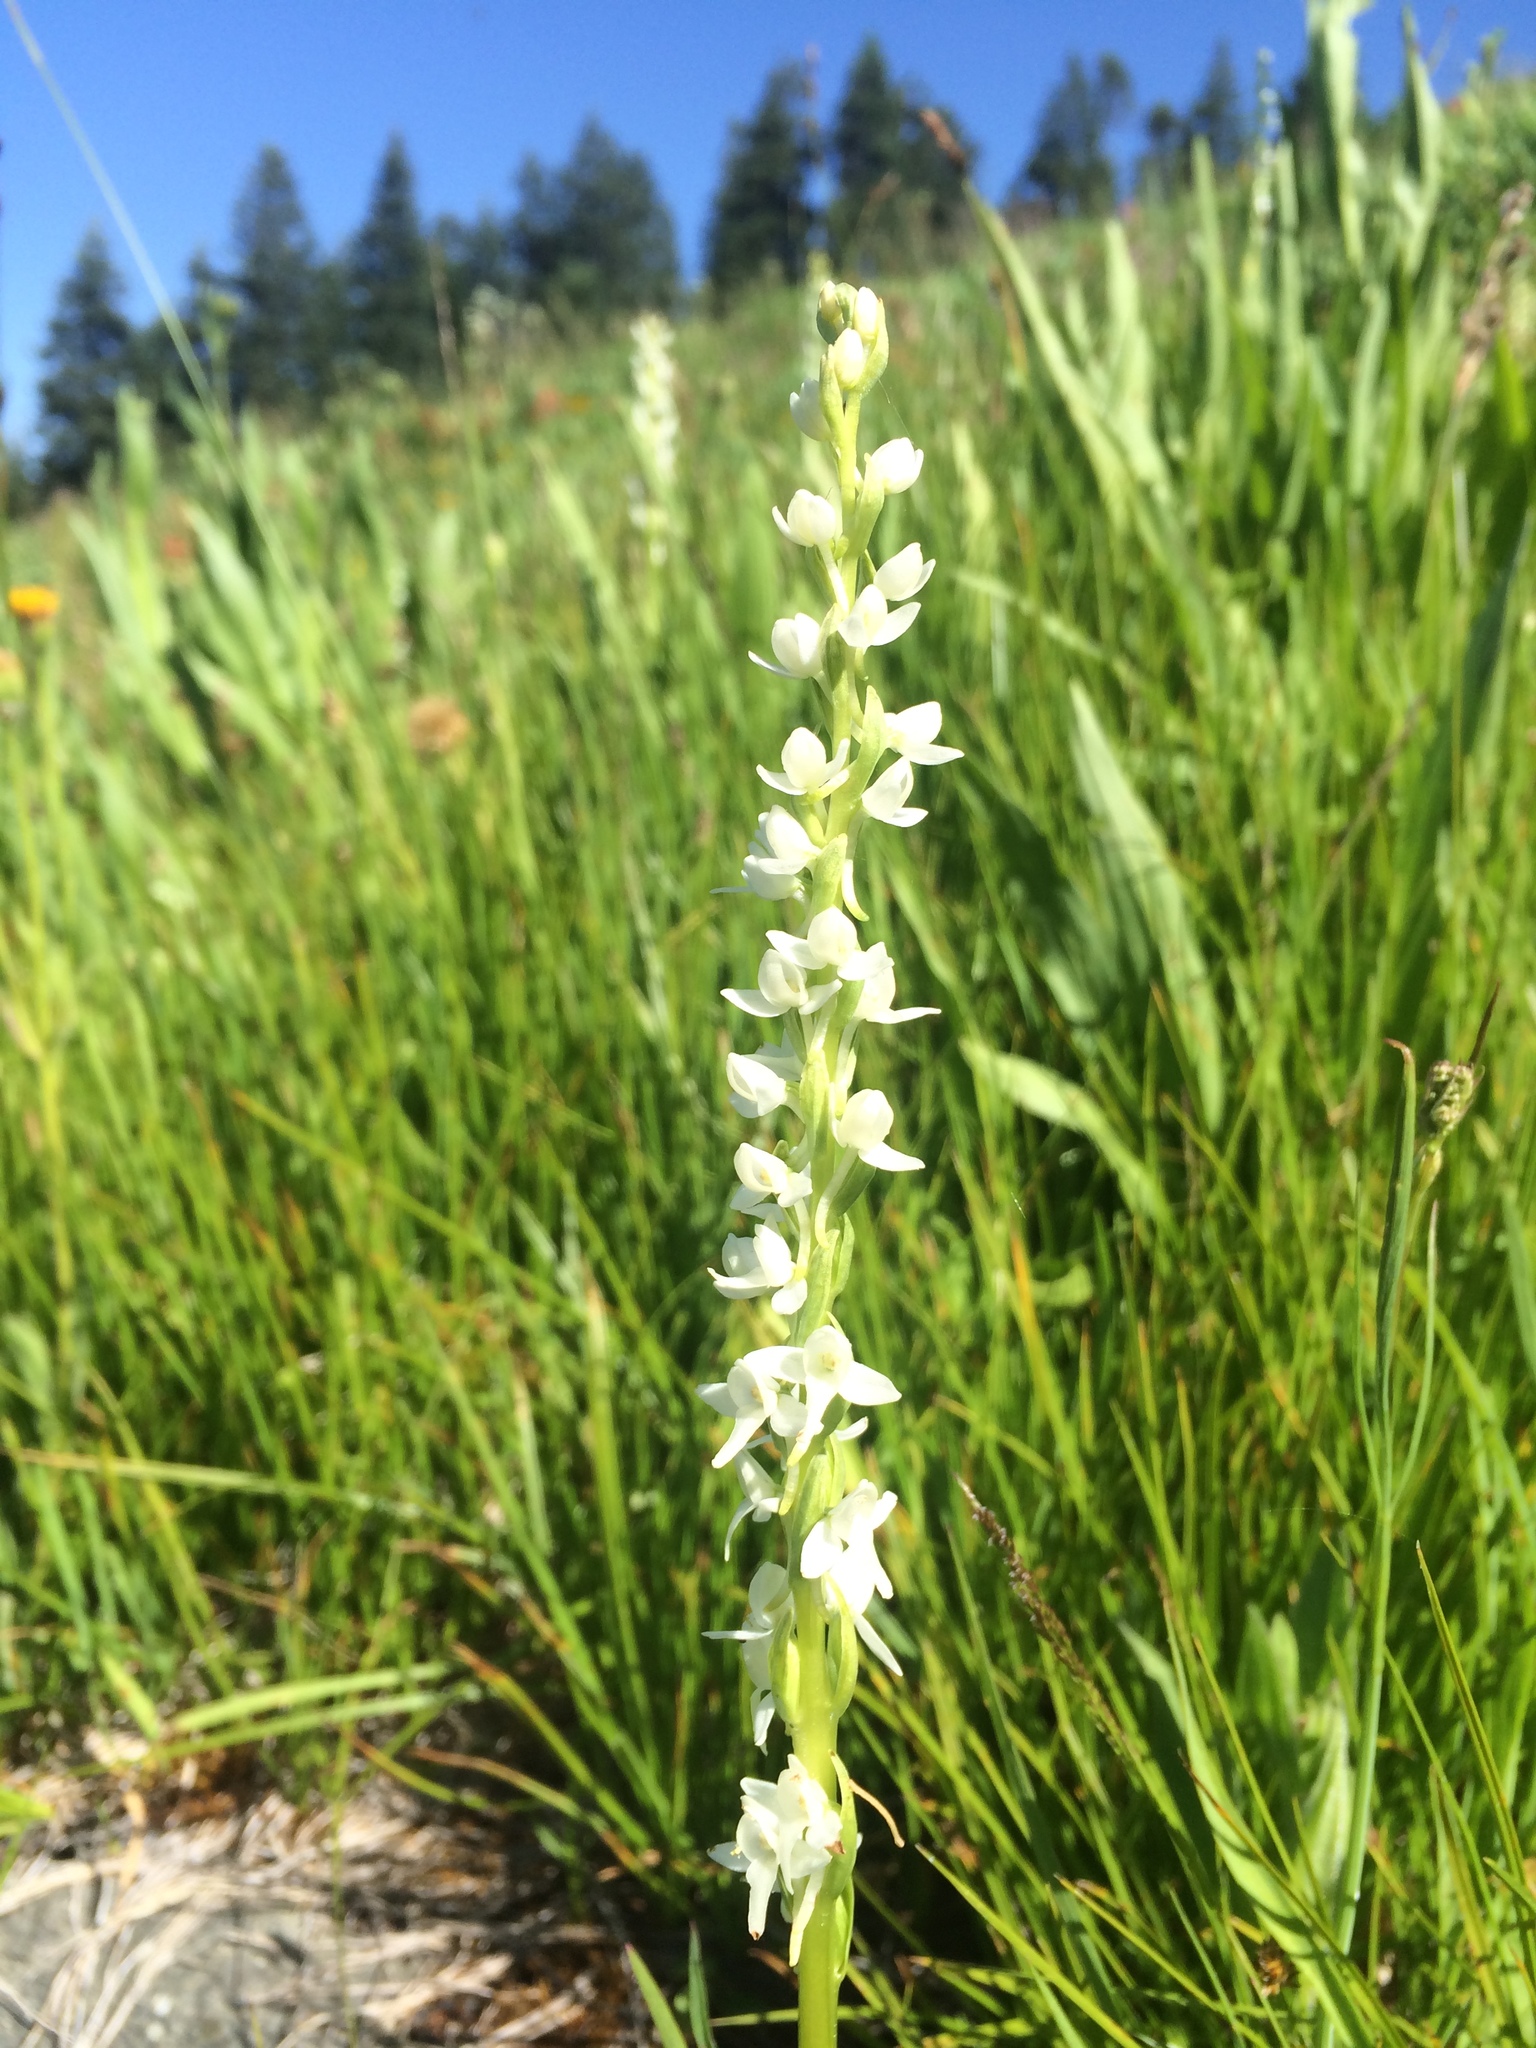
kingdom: Plantae
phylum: Tracheophyta
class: Liliopsida
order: Asparagales
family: Orchidaceae
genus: Platanthera
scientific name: Platanthera dilatata
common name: Bog candles
